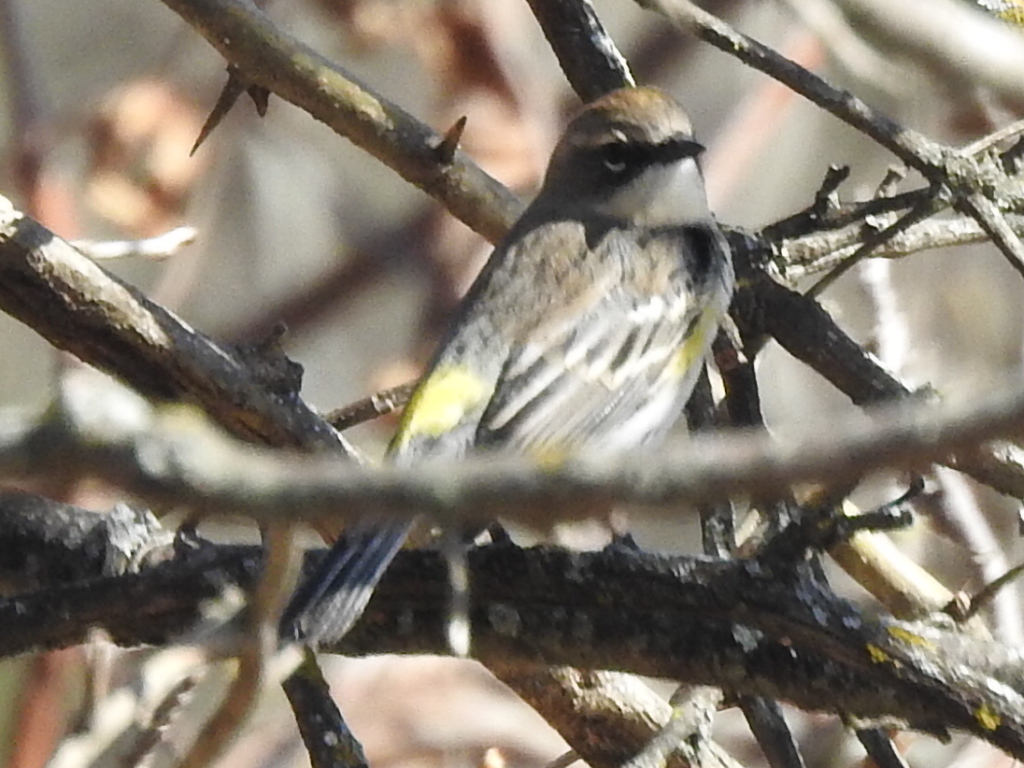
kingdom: Animalia
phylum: Chordata
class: Aves
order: Passeriformes
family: Parulidae
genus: Setophaga
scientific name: Setophaga coronata
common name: Myrtle warbler
